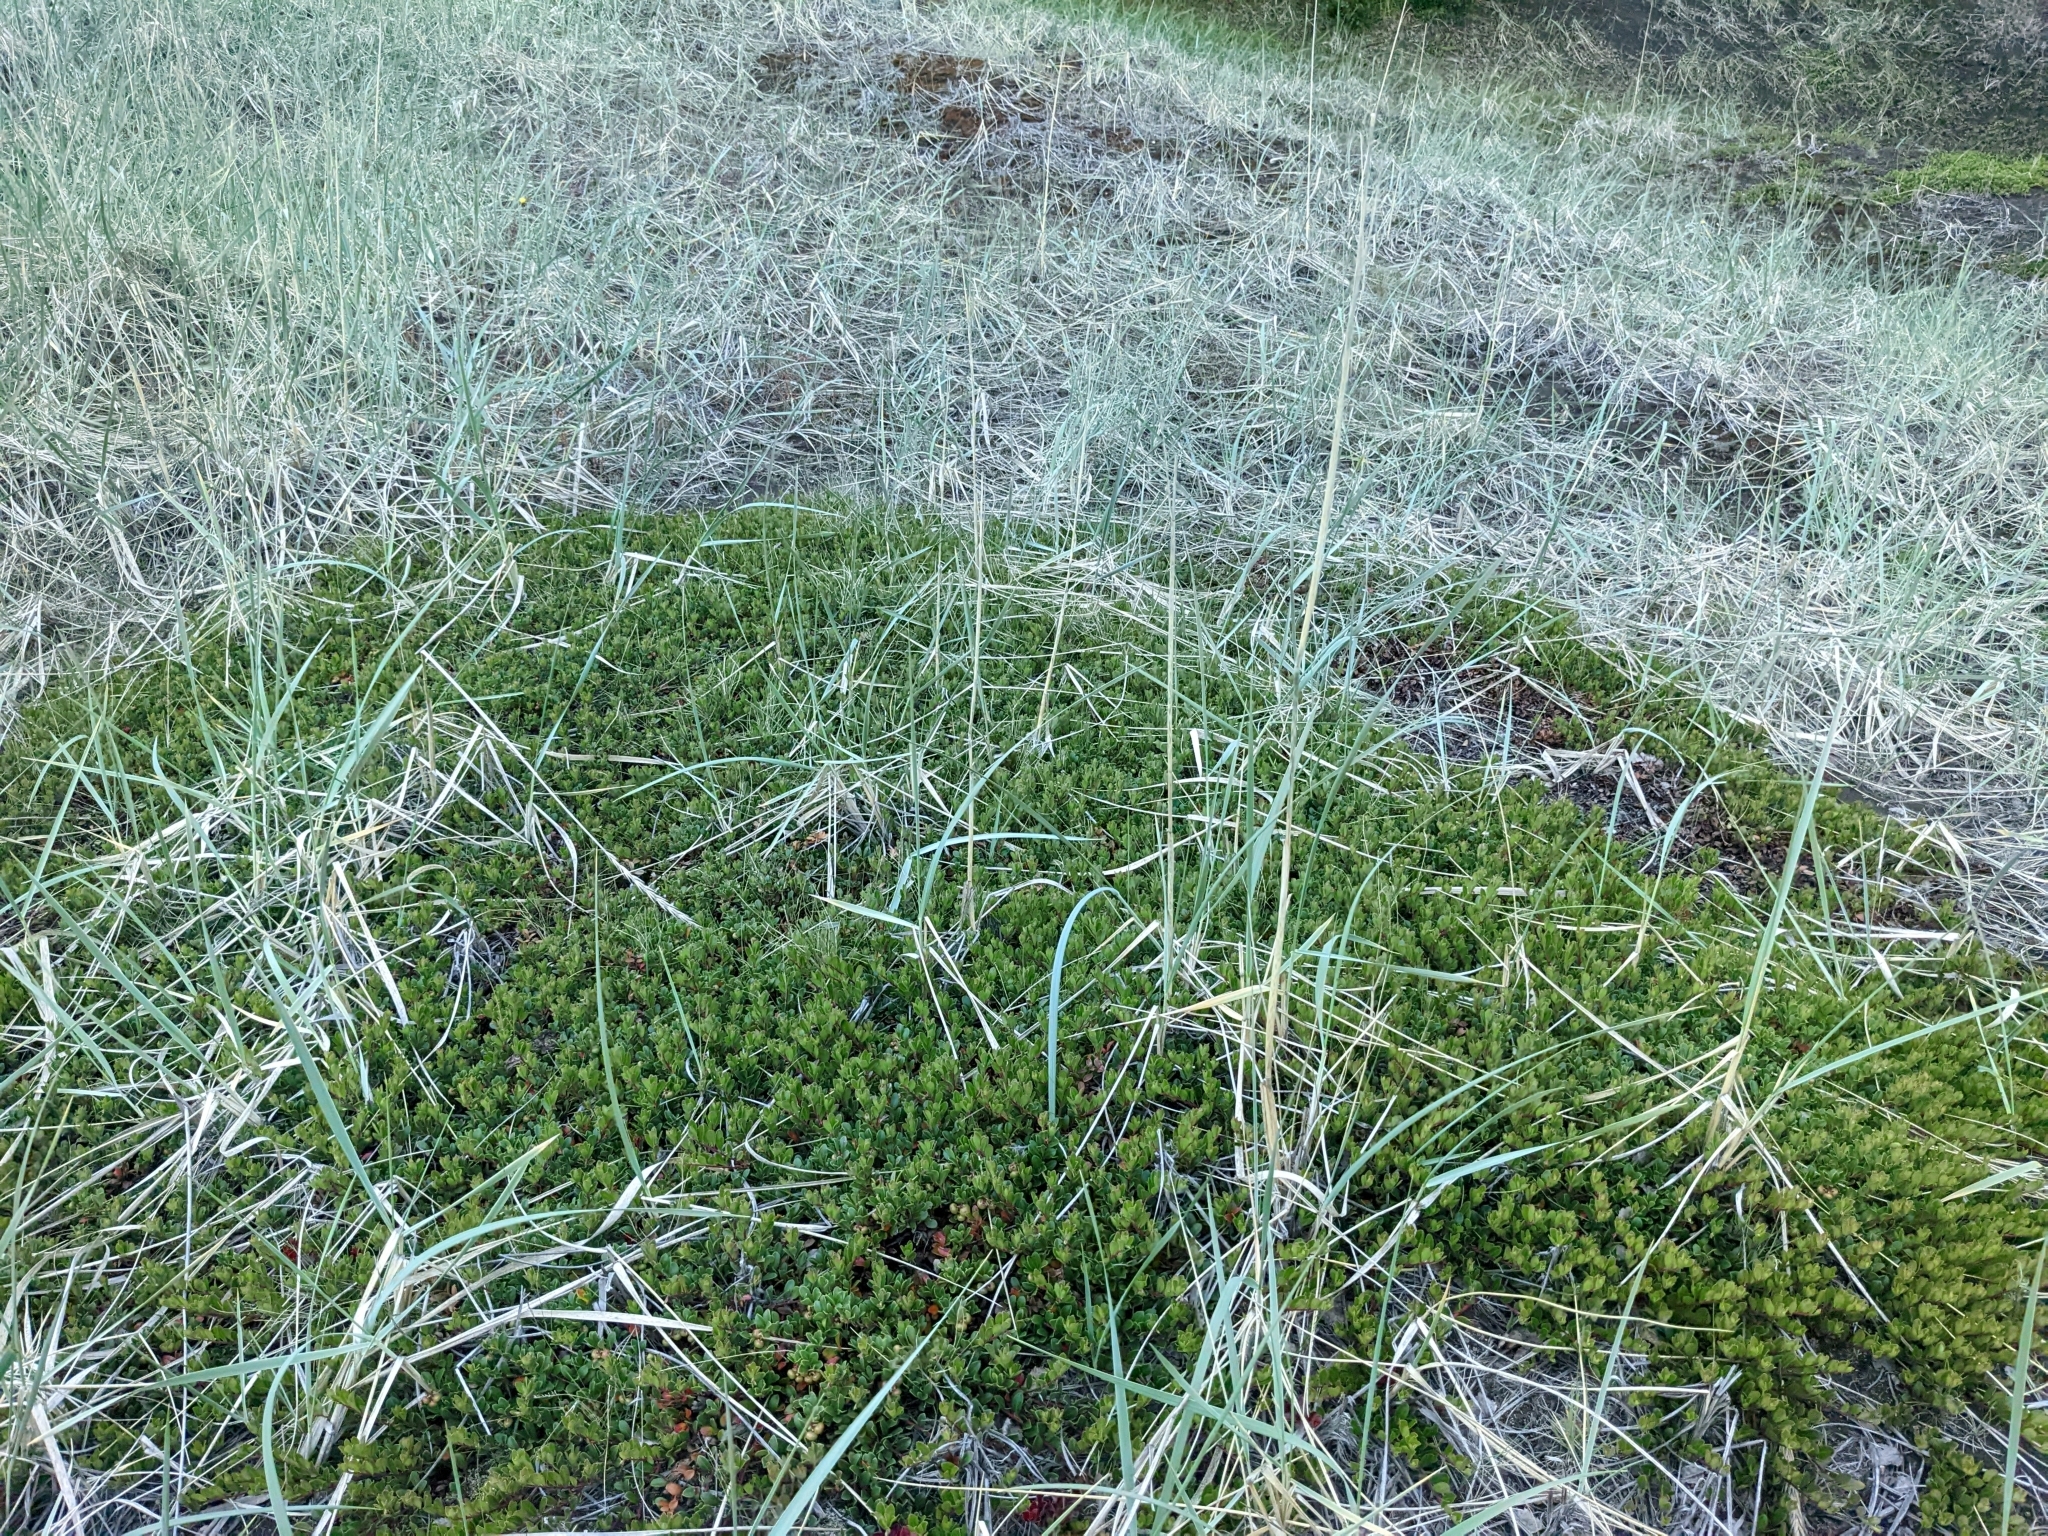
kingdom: Plantae
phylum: Tracheophyta
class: Magnoliopsida
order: Ericales
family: Ericaceae
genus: Arctostaphylos
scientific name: Arctostaphylos uva-ursi
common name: Bearberry
